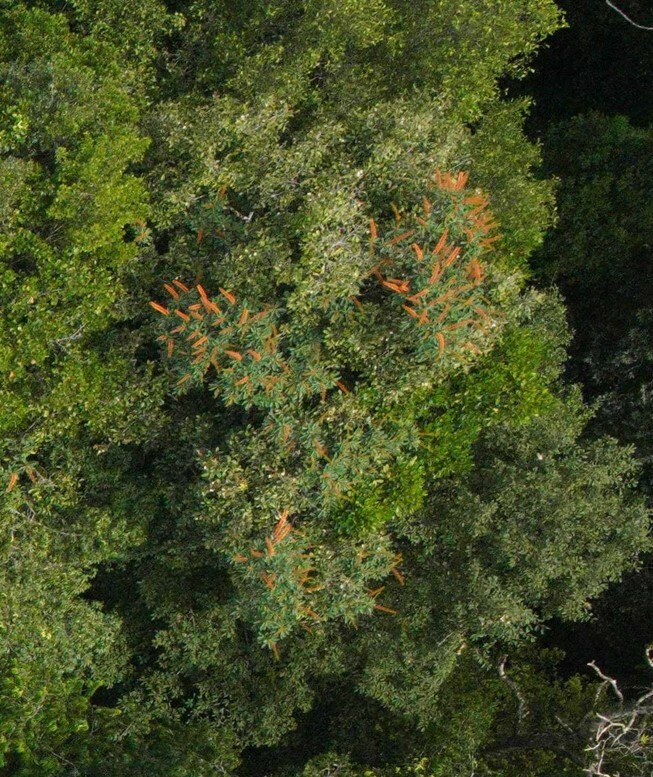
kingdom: Plantae
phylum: Tracheophyta
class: Magnoliopsida
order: Ericales
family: Marcgraviaceae
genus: Norantea
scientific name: Norantea guianensis
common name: Red hot poker vine
